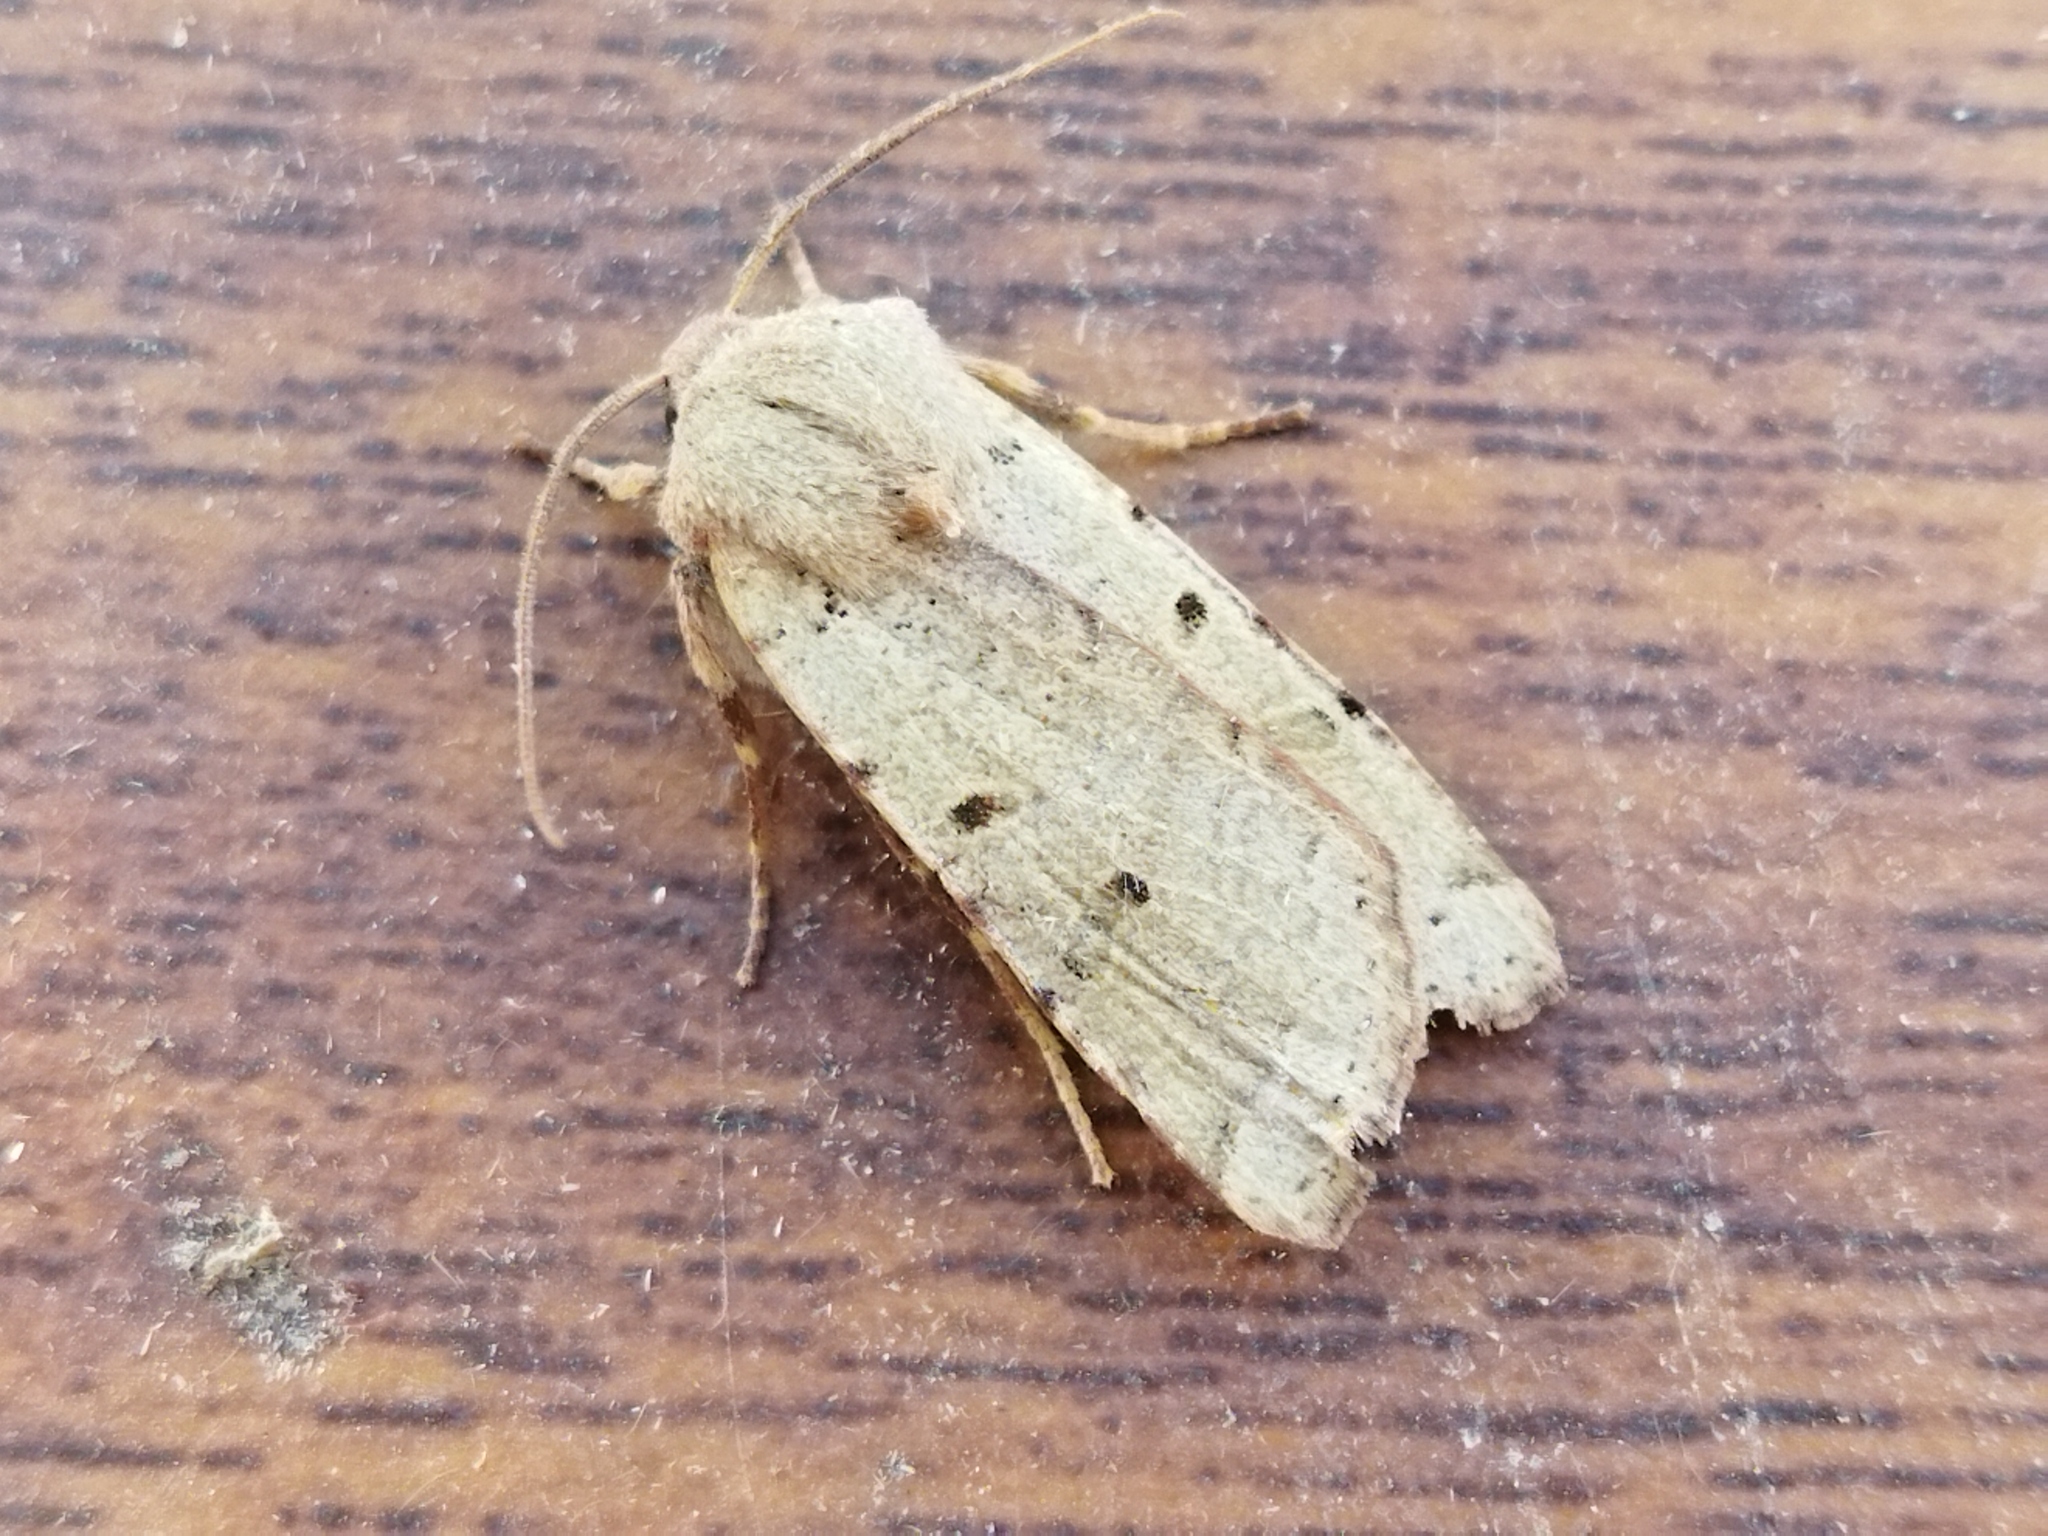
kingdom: Animalia
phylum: Arthropoda
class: Insecta
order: Lepidoptera
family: Noctuidae
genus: Agrochola
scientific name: Agrochola lychnidis
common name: Beaded chestnut
